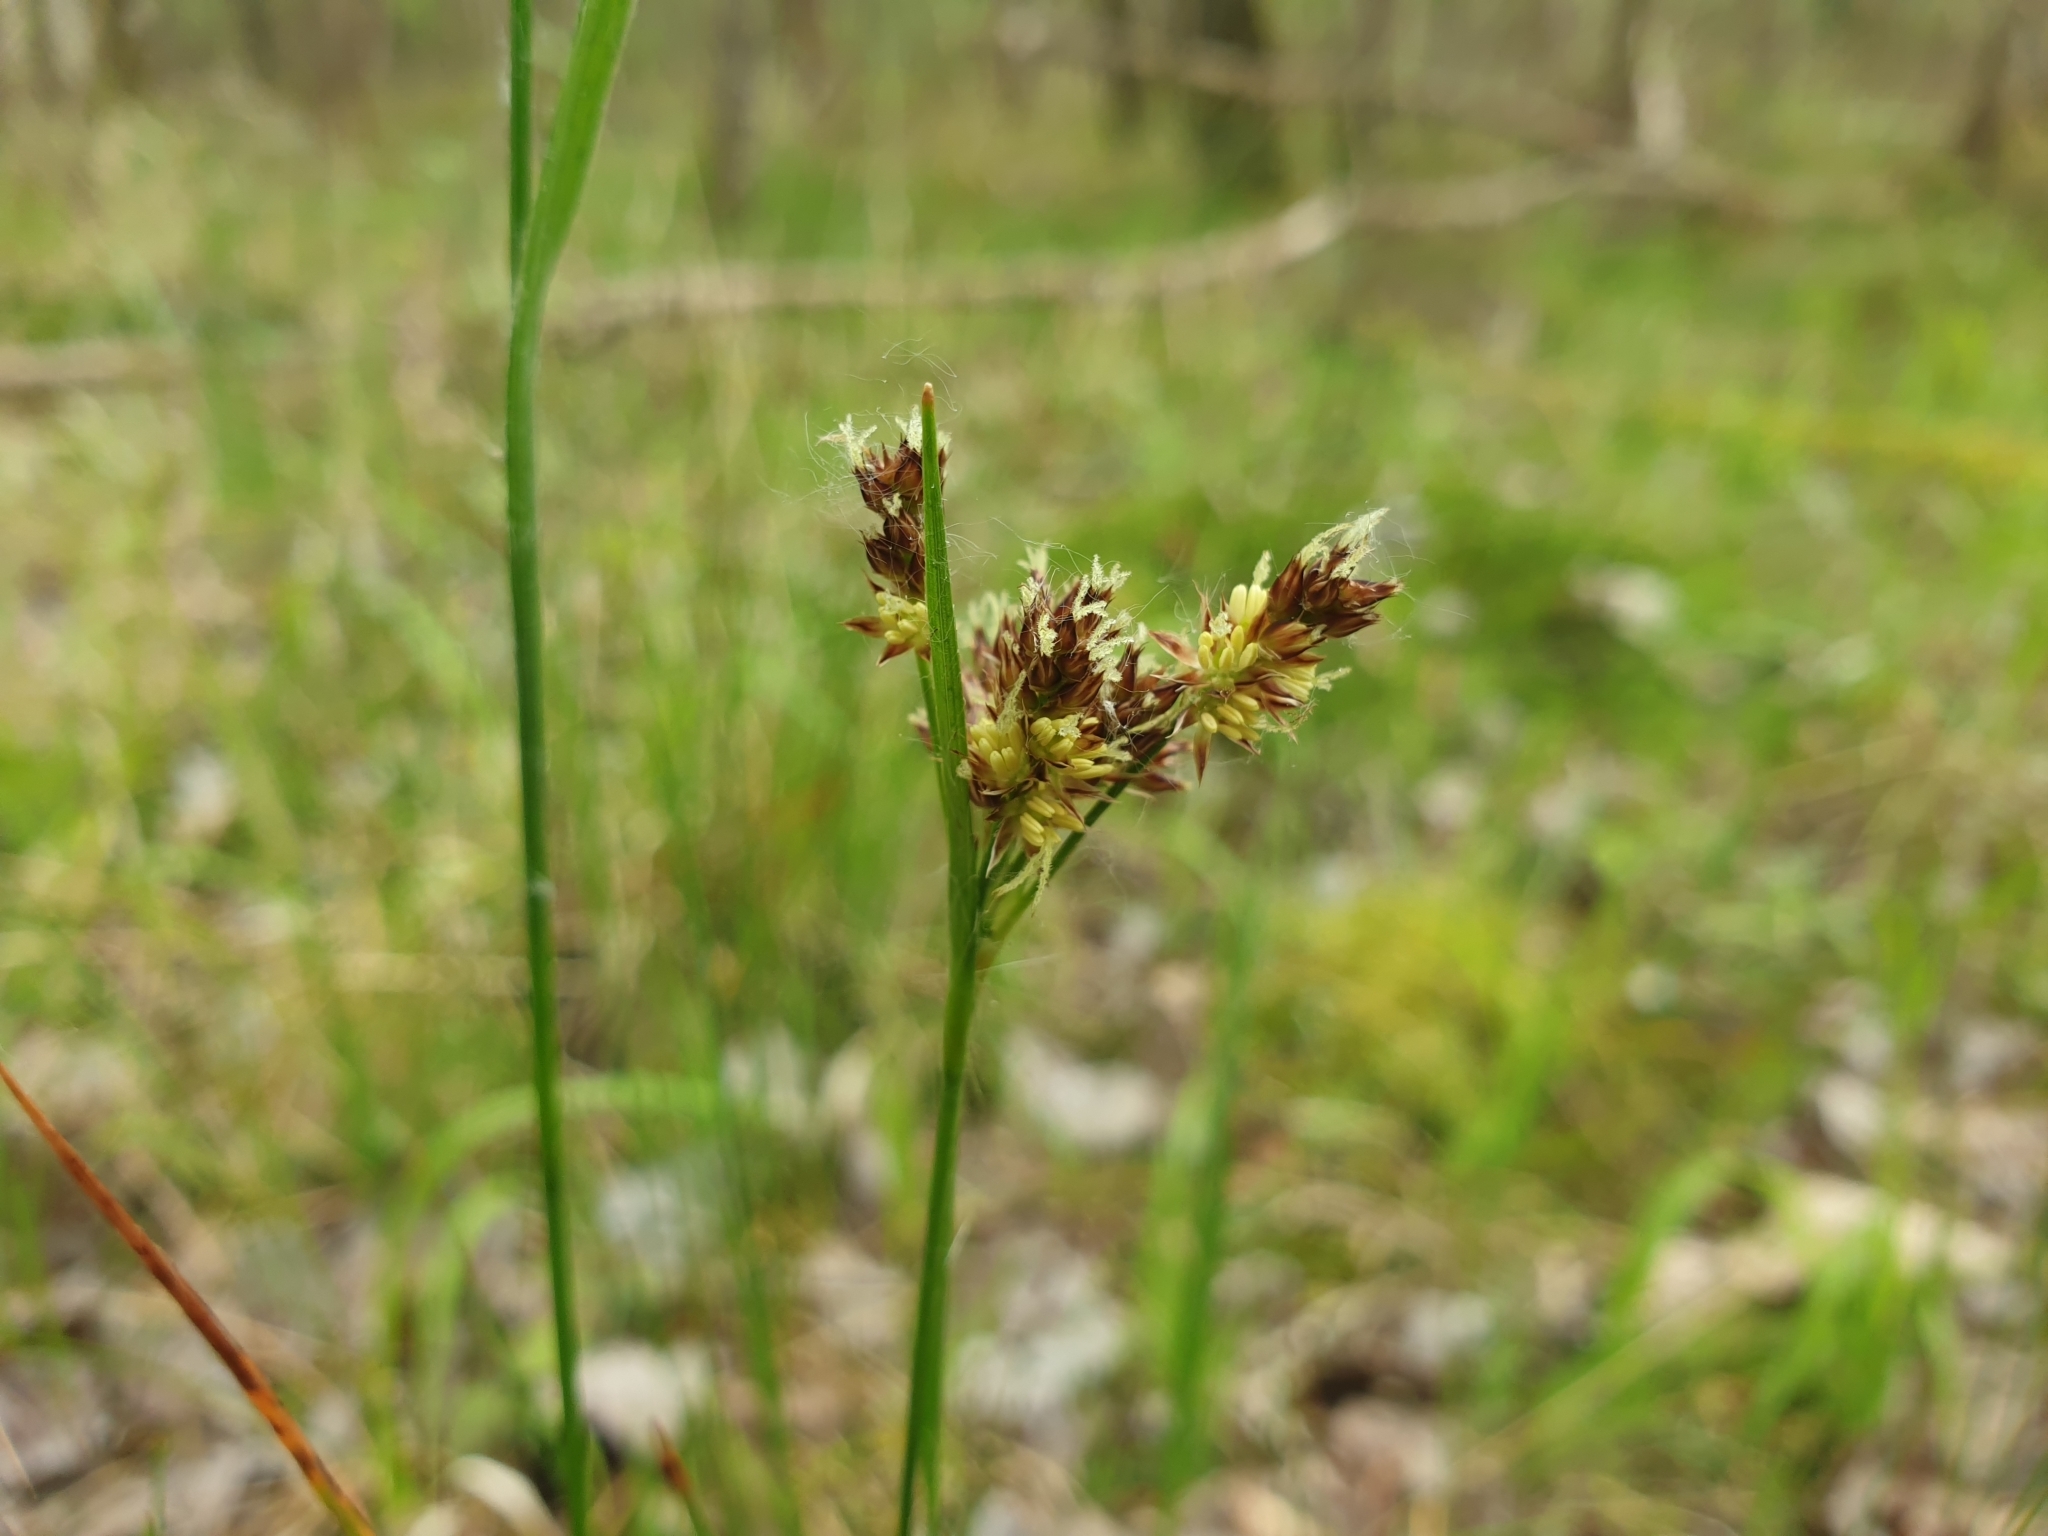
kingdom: Plantae
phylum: Tracheophyta
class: Liliopsida
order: Poales
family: Juncaceae
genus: Luzula
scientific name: Luzula multiflora
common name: Heath wood-rush
